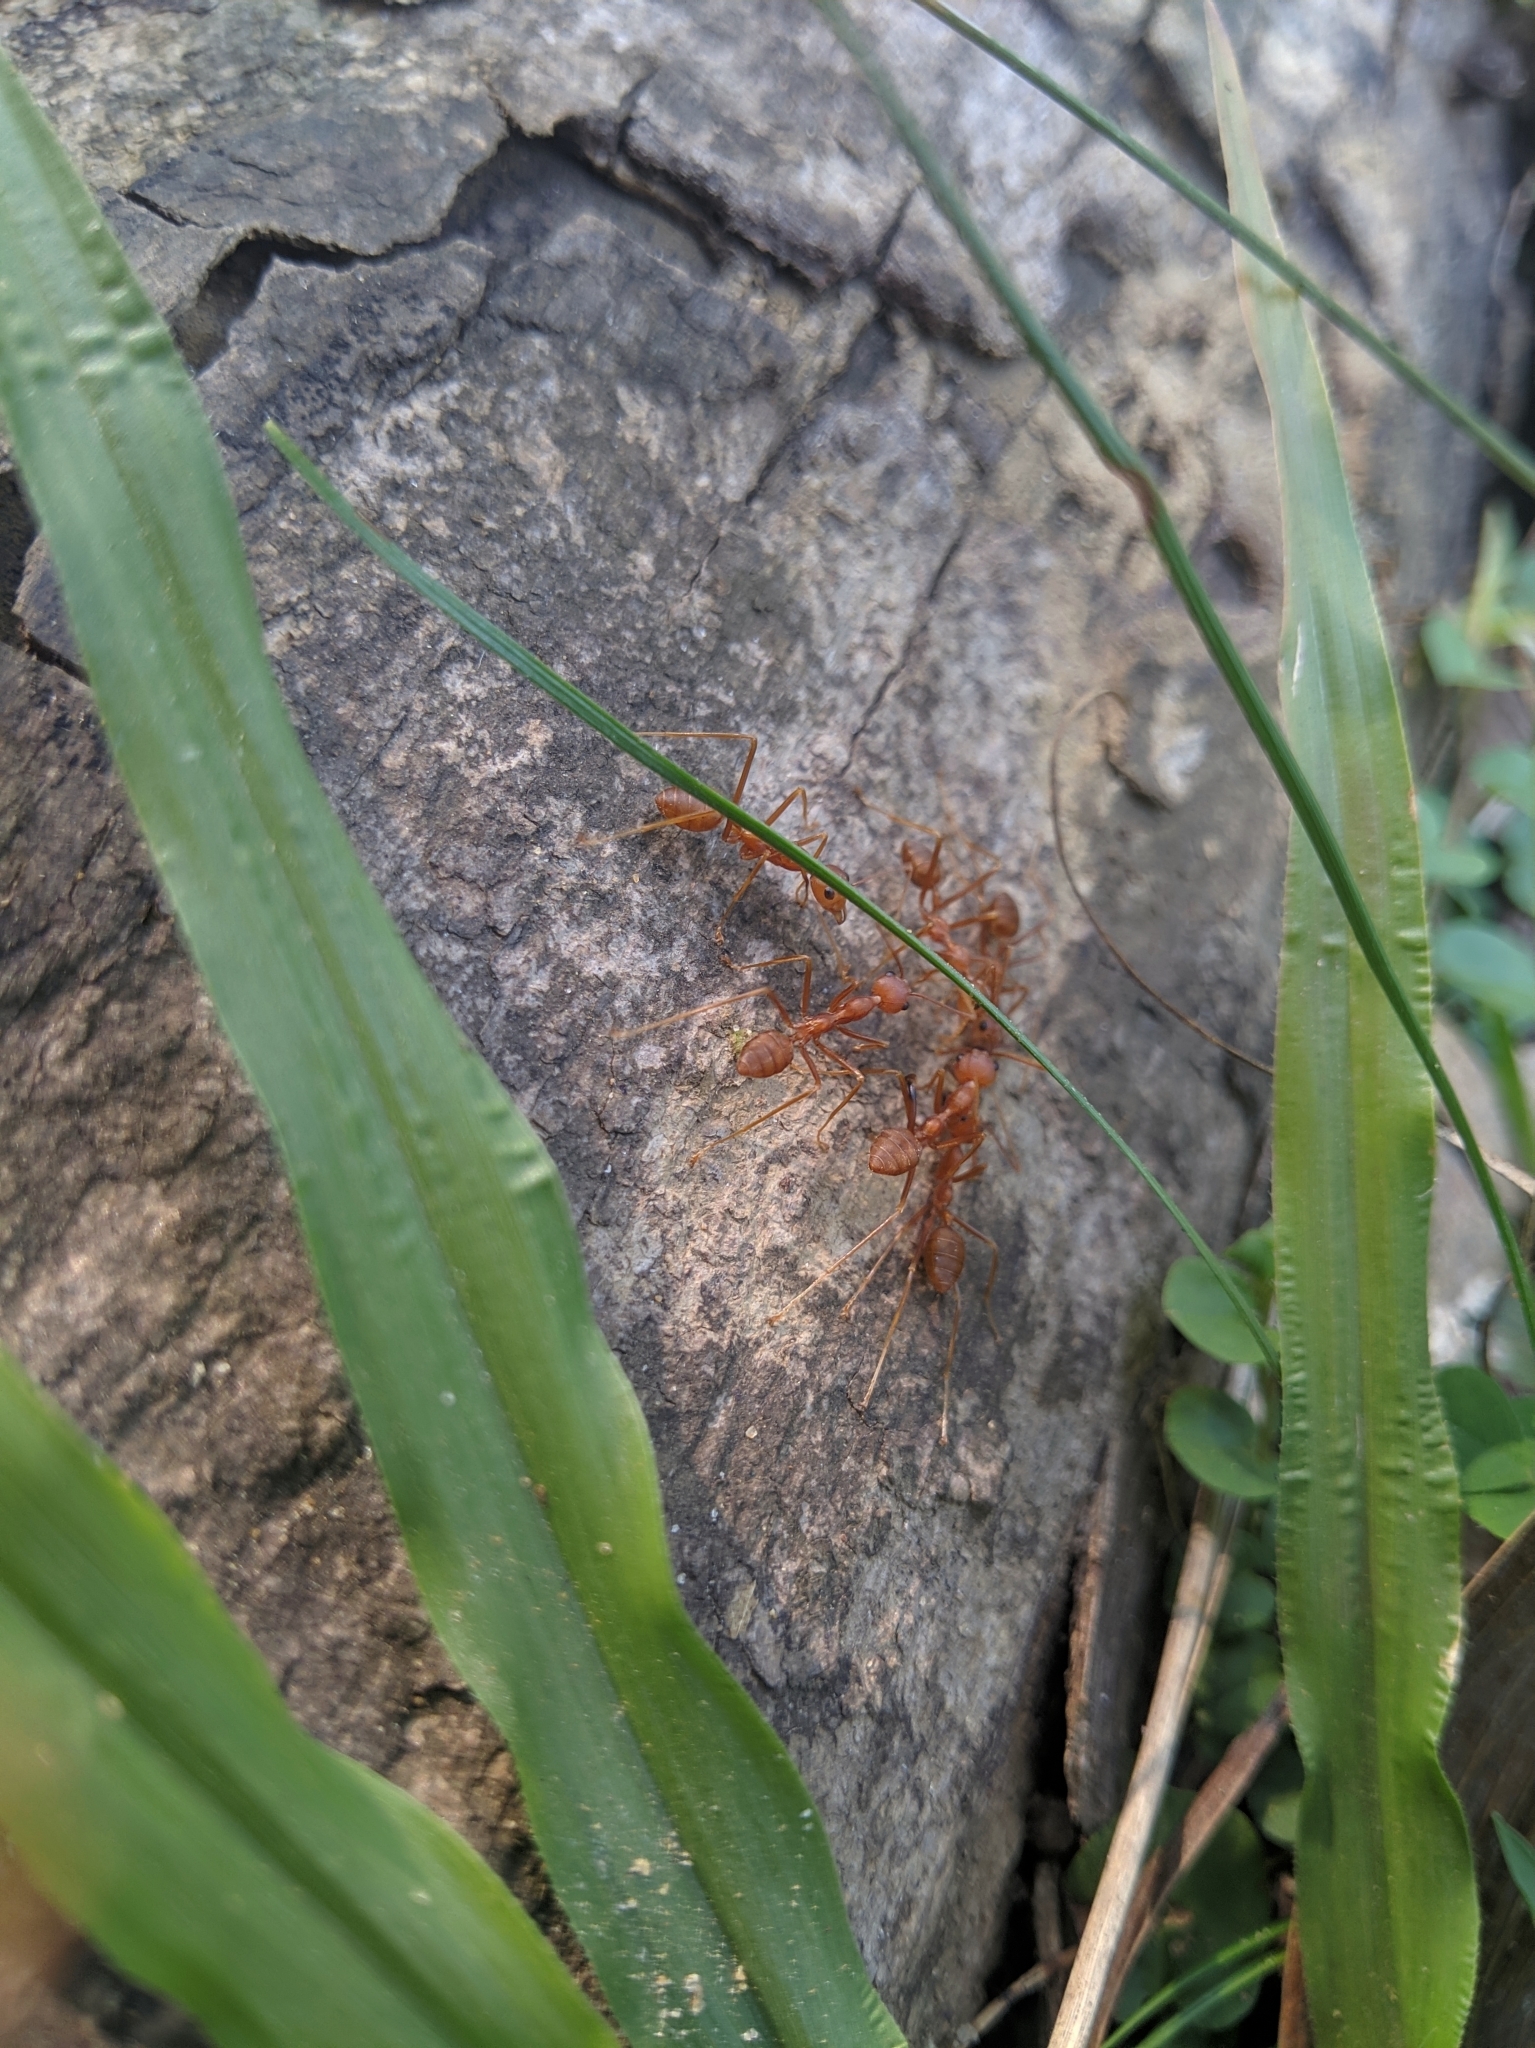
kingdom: Animalia
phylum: Arthropoda
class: Insecta
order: Hymenoptera
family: Formicidae
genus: Oecophylla
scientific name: Oecophylla smaragdina
